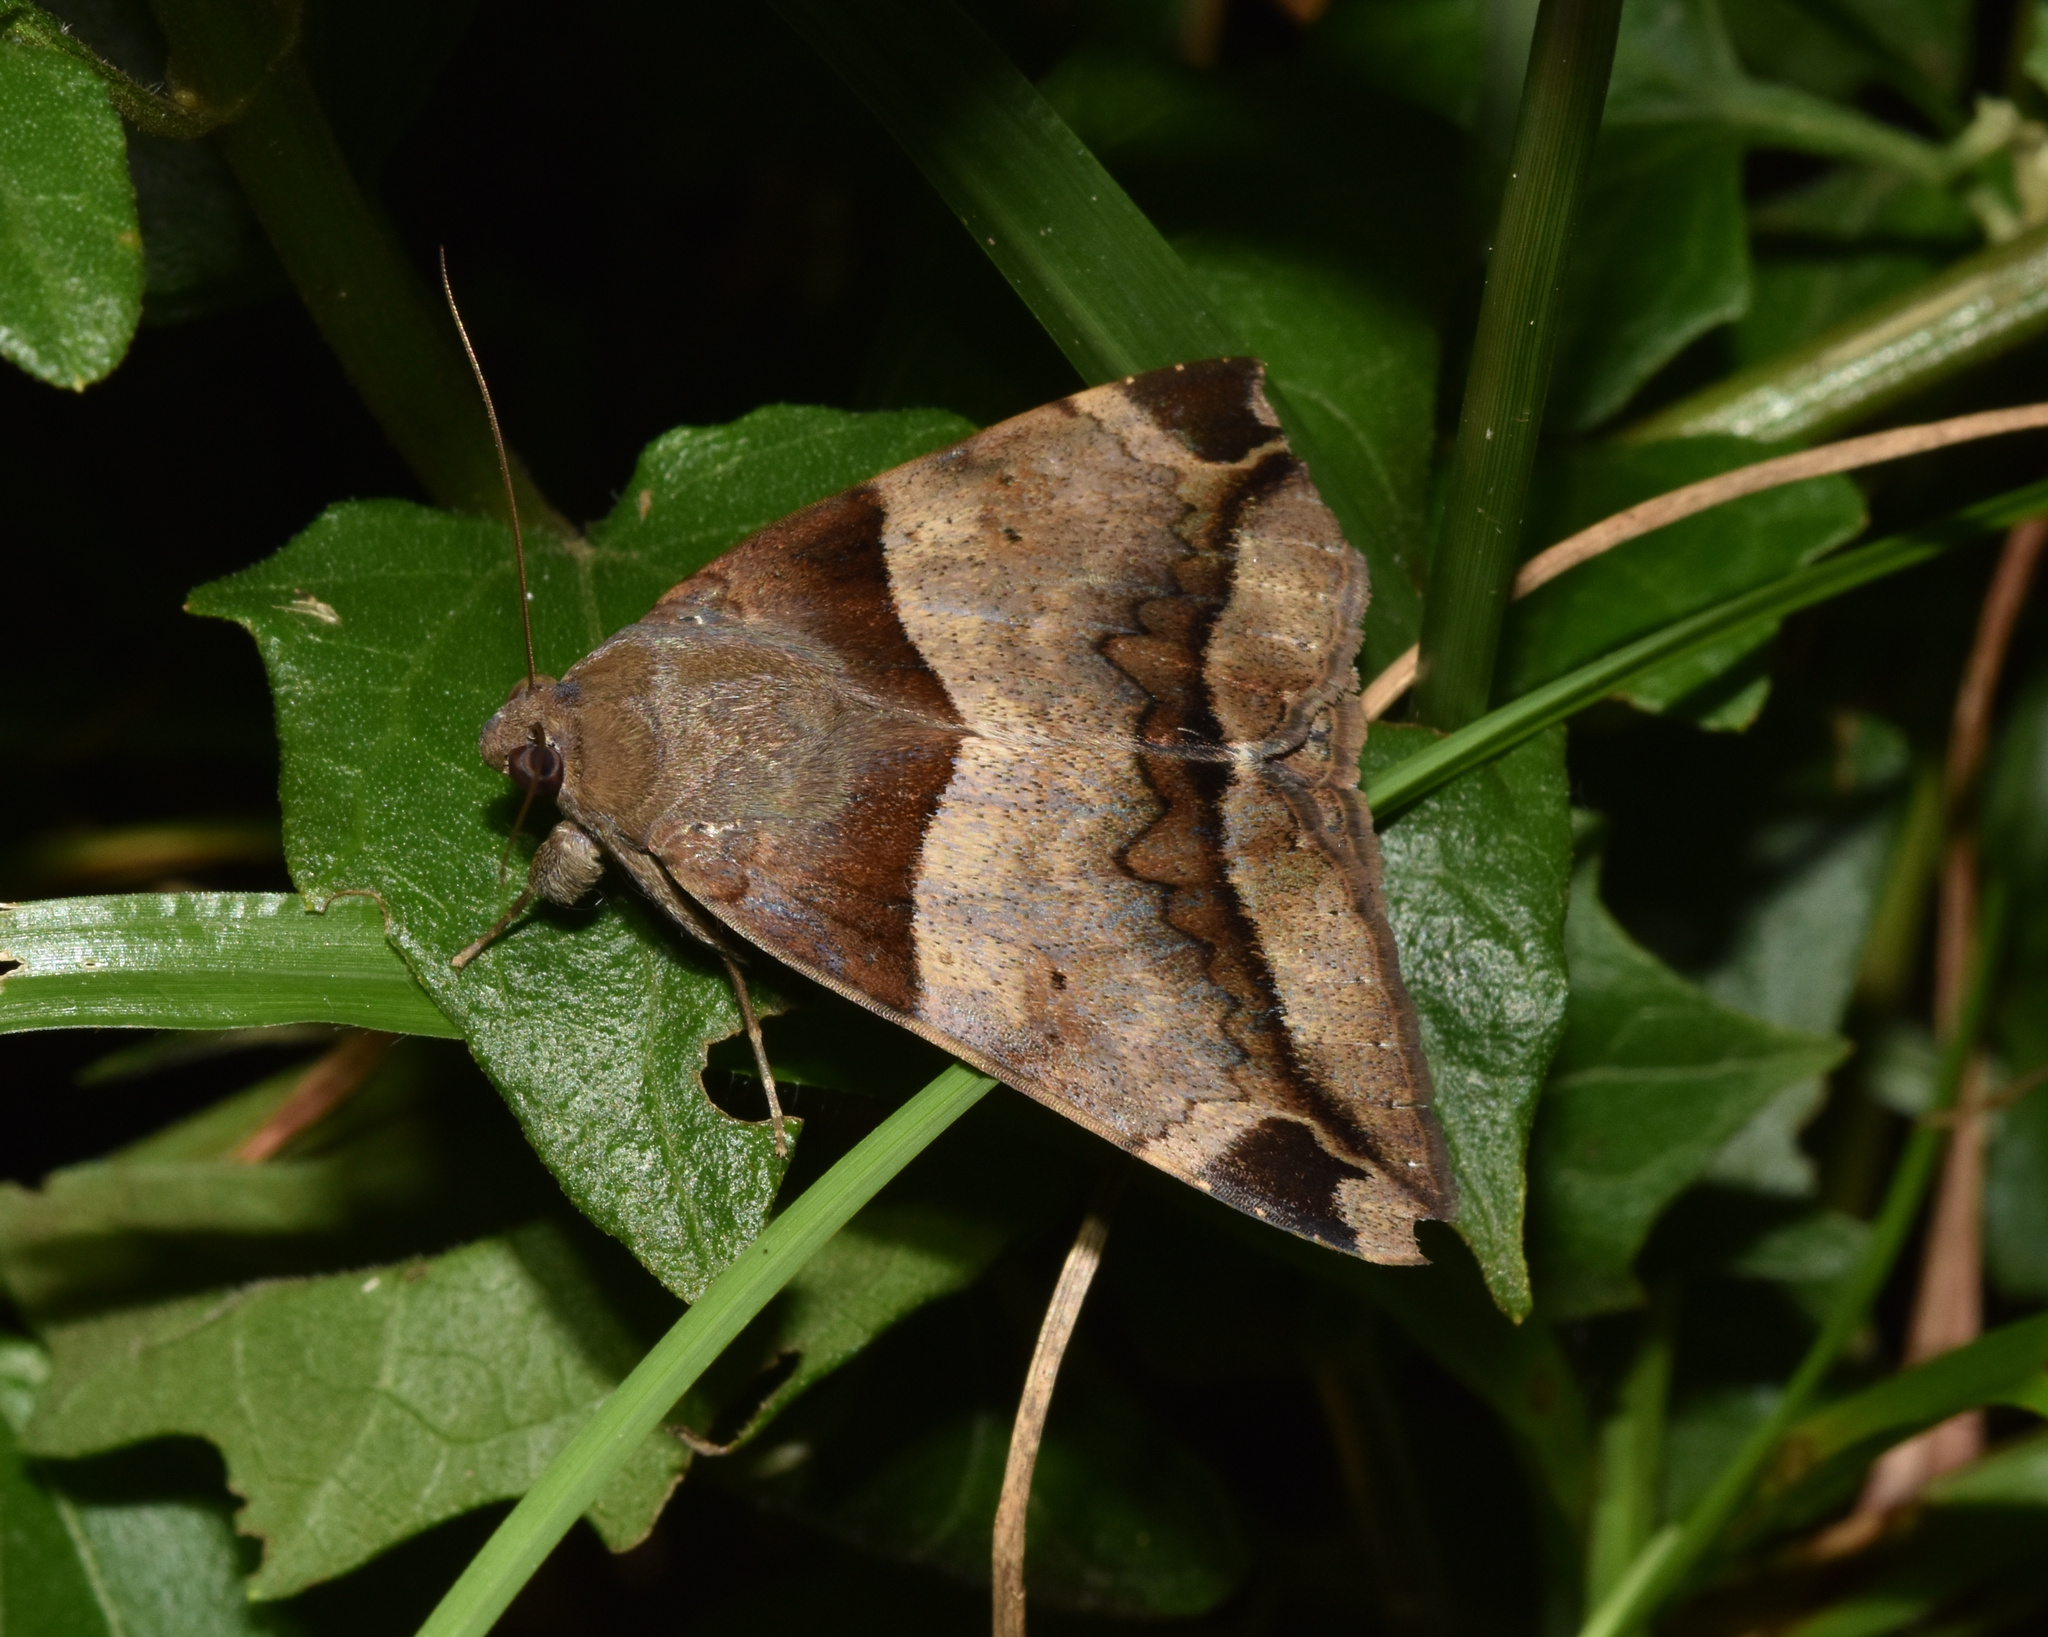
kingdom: Animalia
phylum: Arthropoda
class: Insecta
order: Lepidoptera
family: Erebidae
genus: Achaea
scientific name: Achaea lienardi
